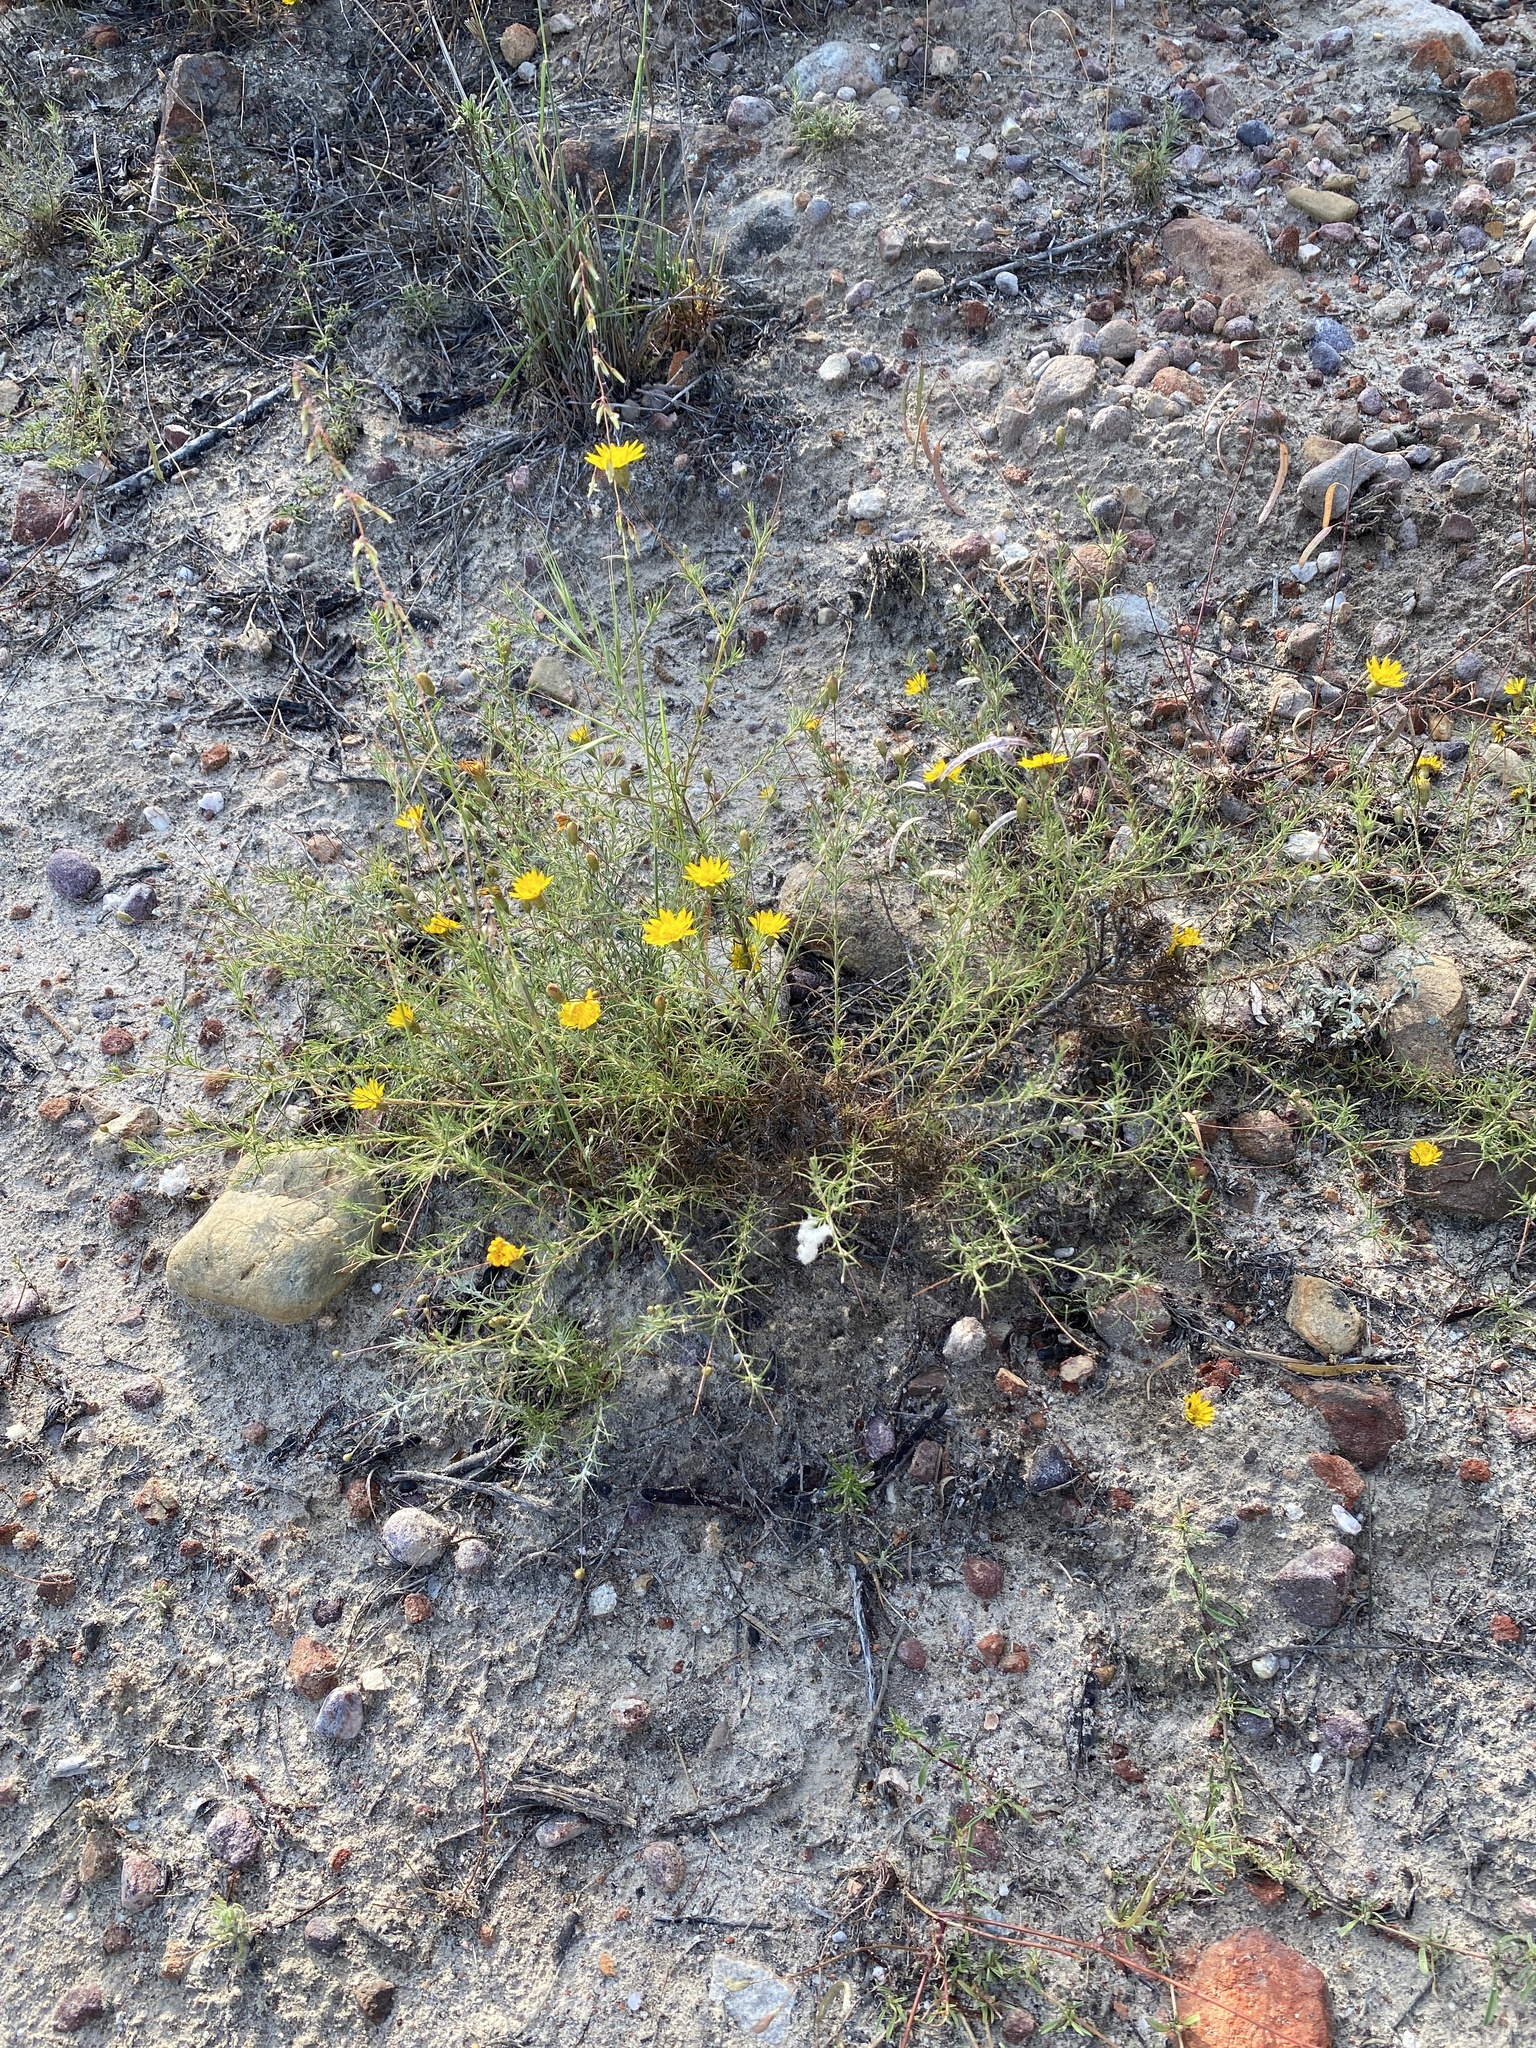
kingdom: Plantae
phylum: Tracheophyta
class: Magnoliopsida
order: Asterales
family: Asteraceae
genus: Leysera
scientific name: Leysera gnaphalodes
